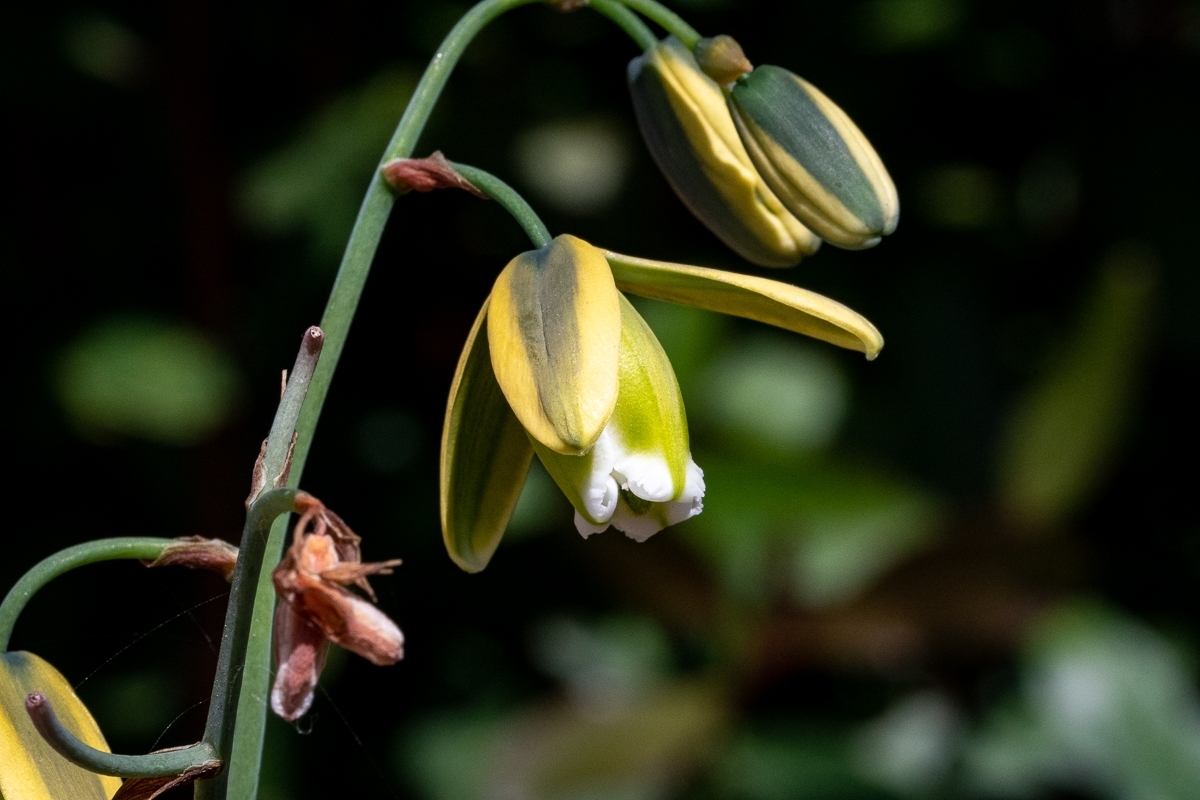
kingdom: Plantae
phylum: Tracheophyta
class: Liliopsida
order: Asparagales
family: Asparagaceae
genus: Albuca
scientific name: Albuca cooperi
